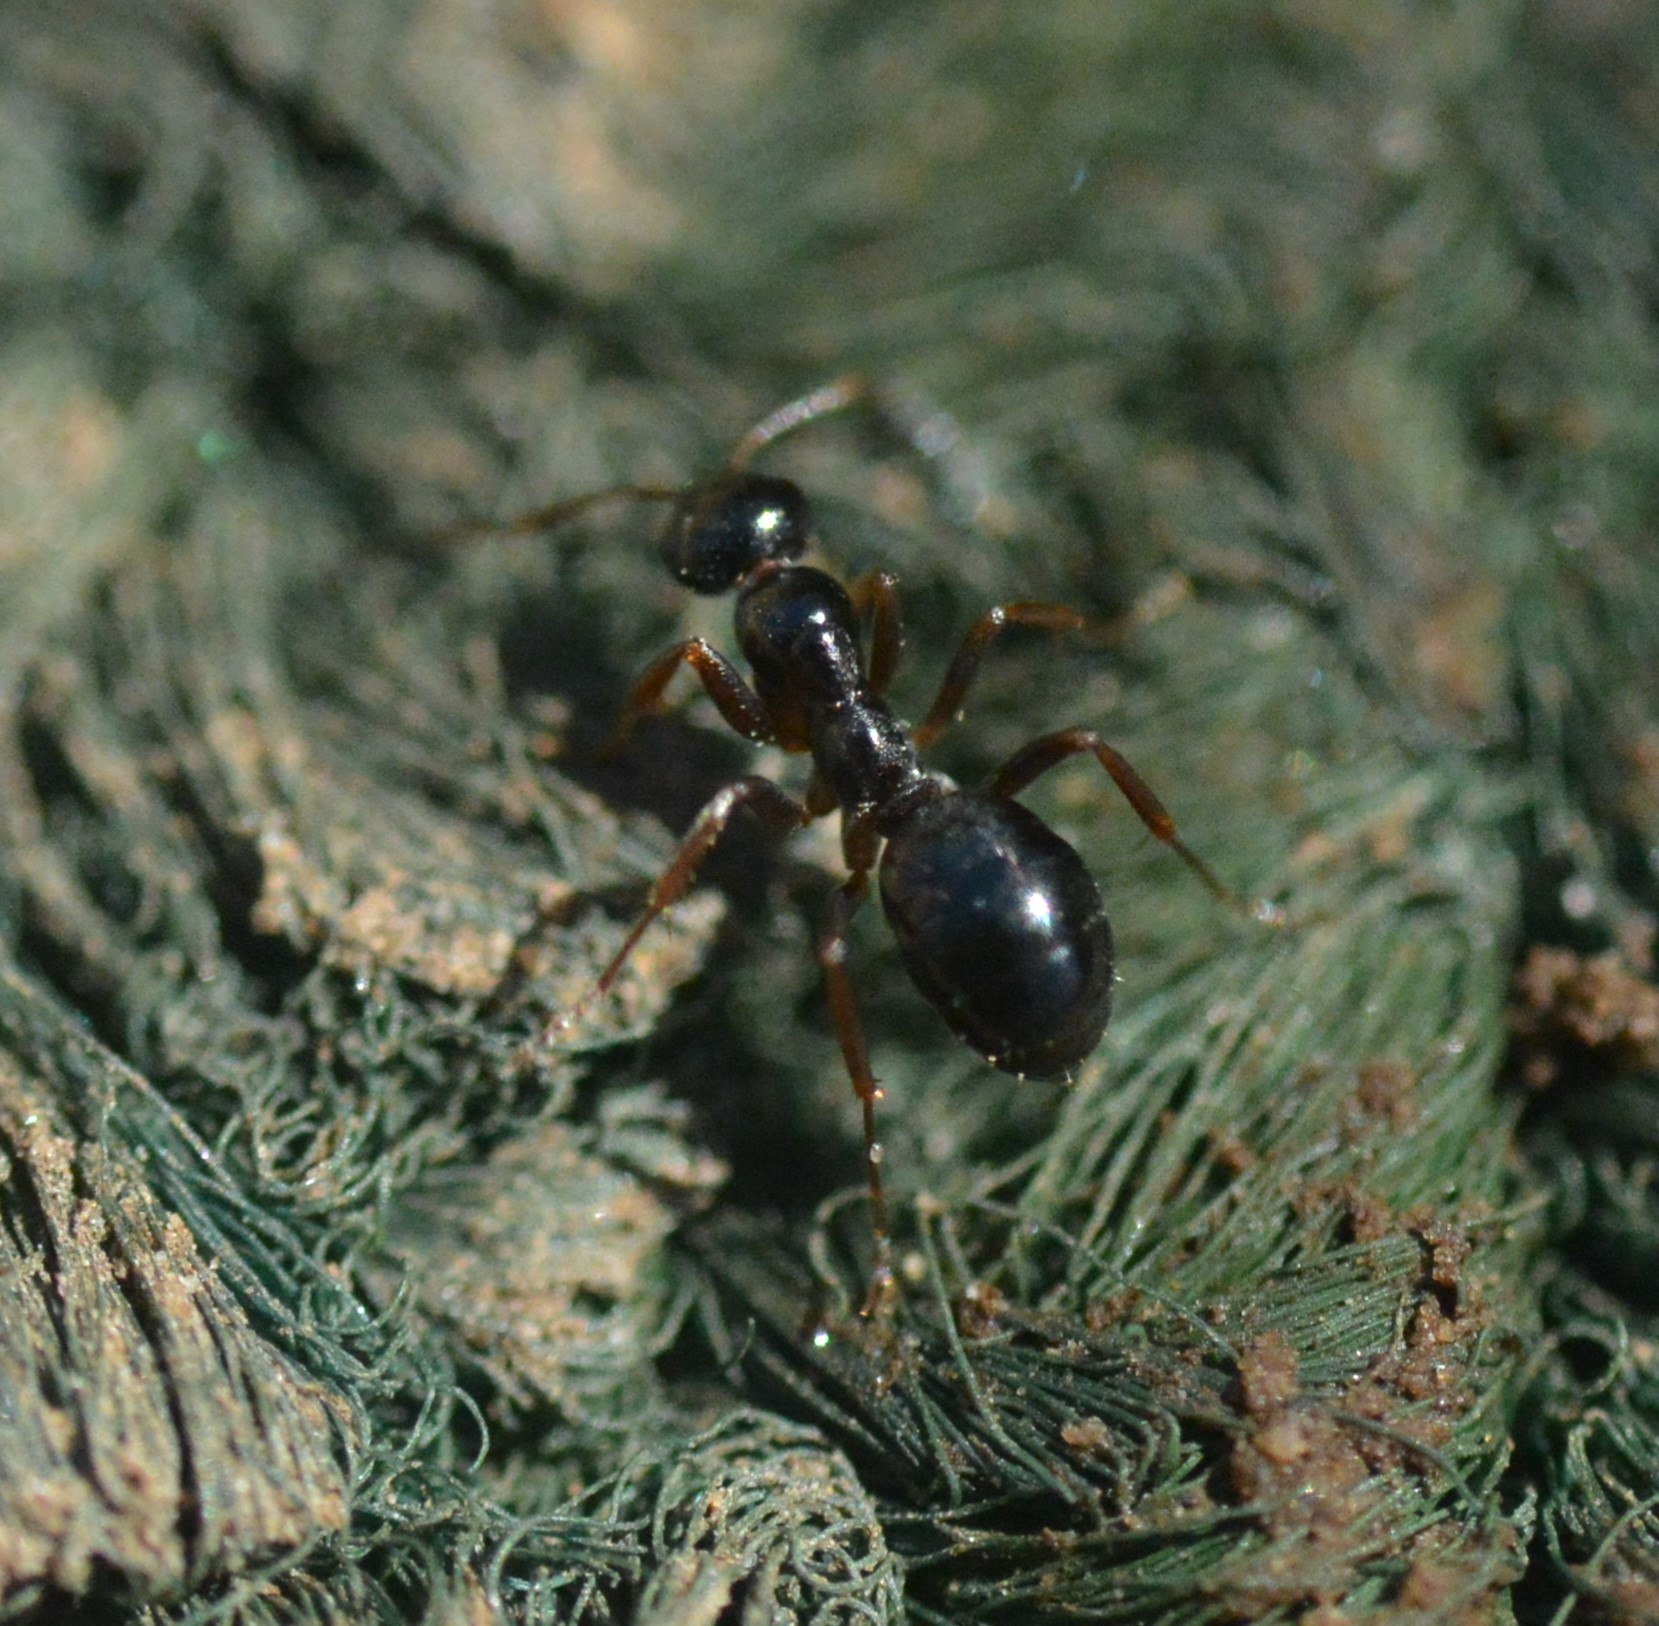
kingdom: Animalia
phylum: Arthropoda
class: Insecta
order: Hymenoptera
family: Formicidae
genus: Formica
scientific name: Formica neogagates
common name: New world black ant
